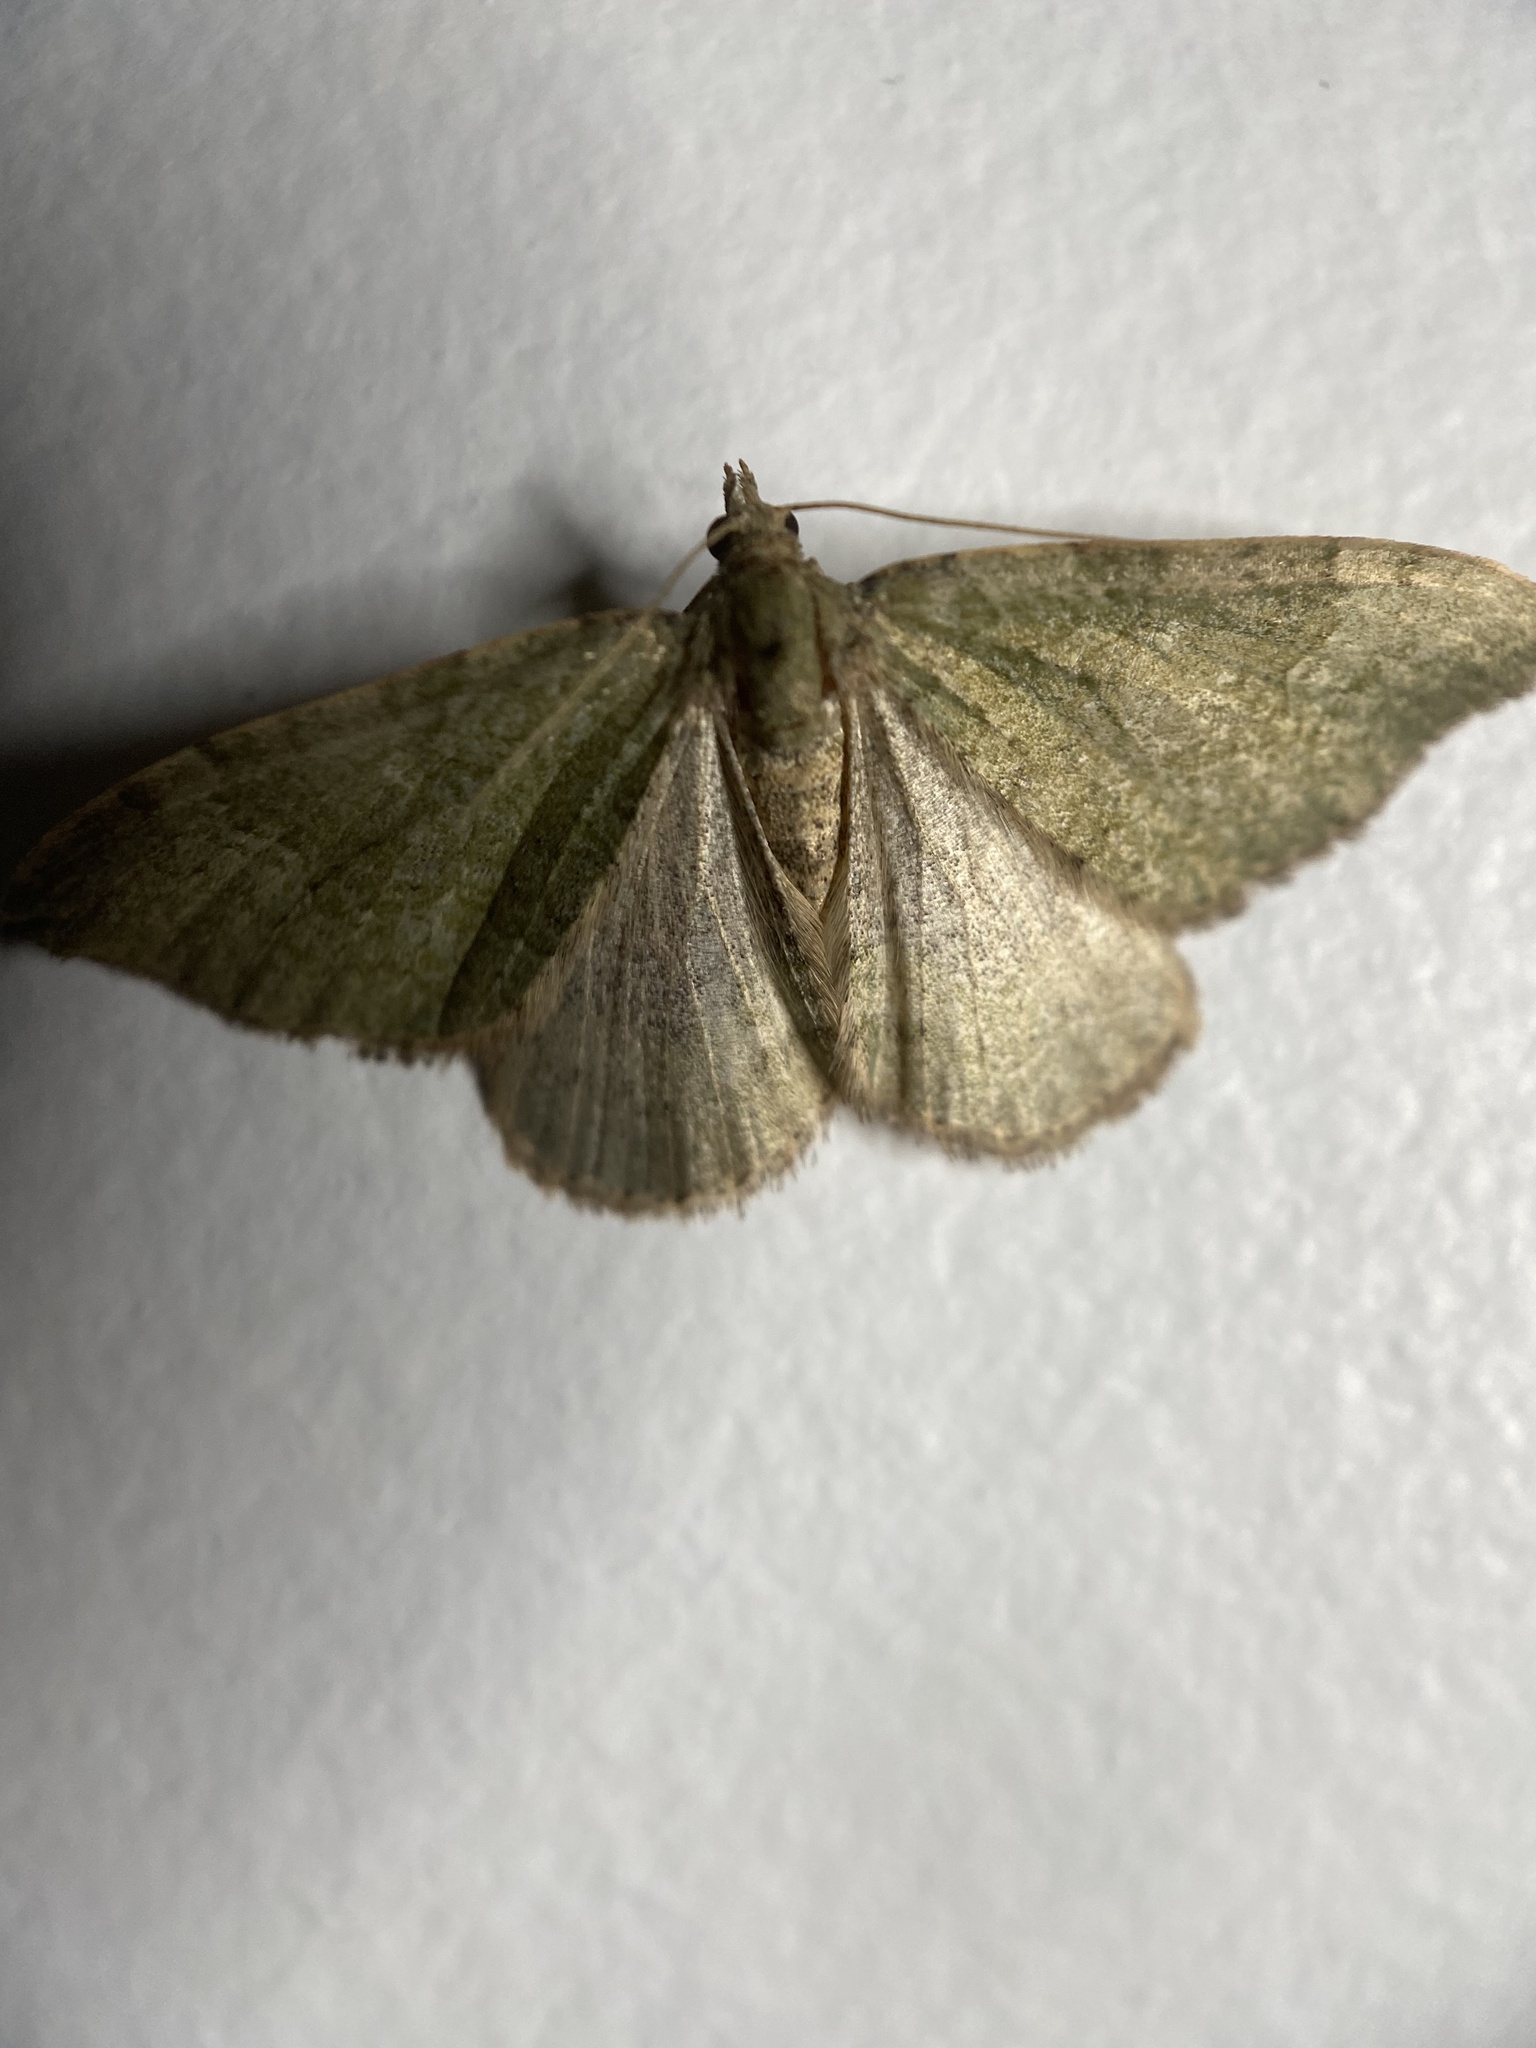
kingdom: Animalia
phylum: Arthropoda
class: Insecta
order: Lepidoptera
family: Geometridae
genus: Epyaxa
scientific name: Epyaxa rosearia
